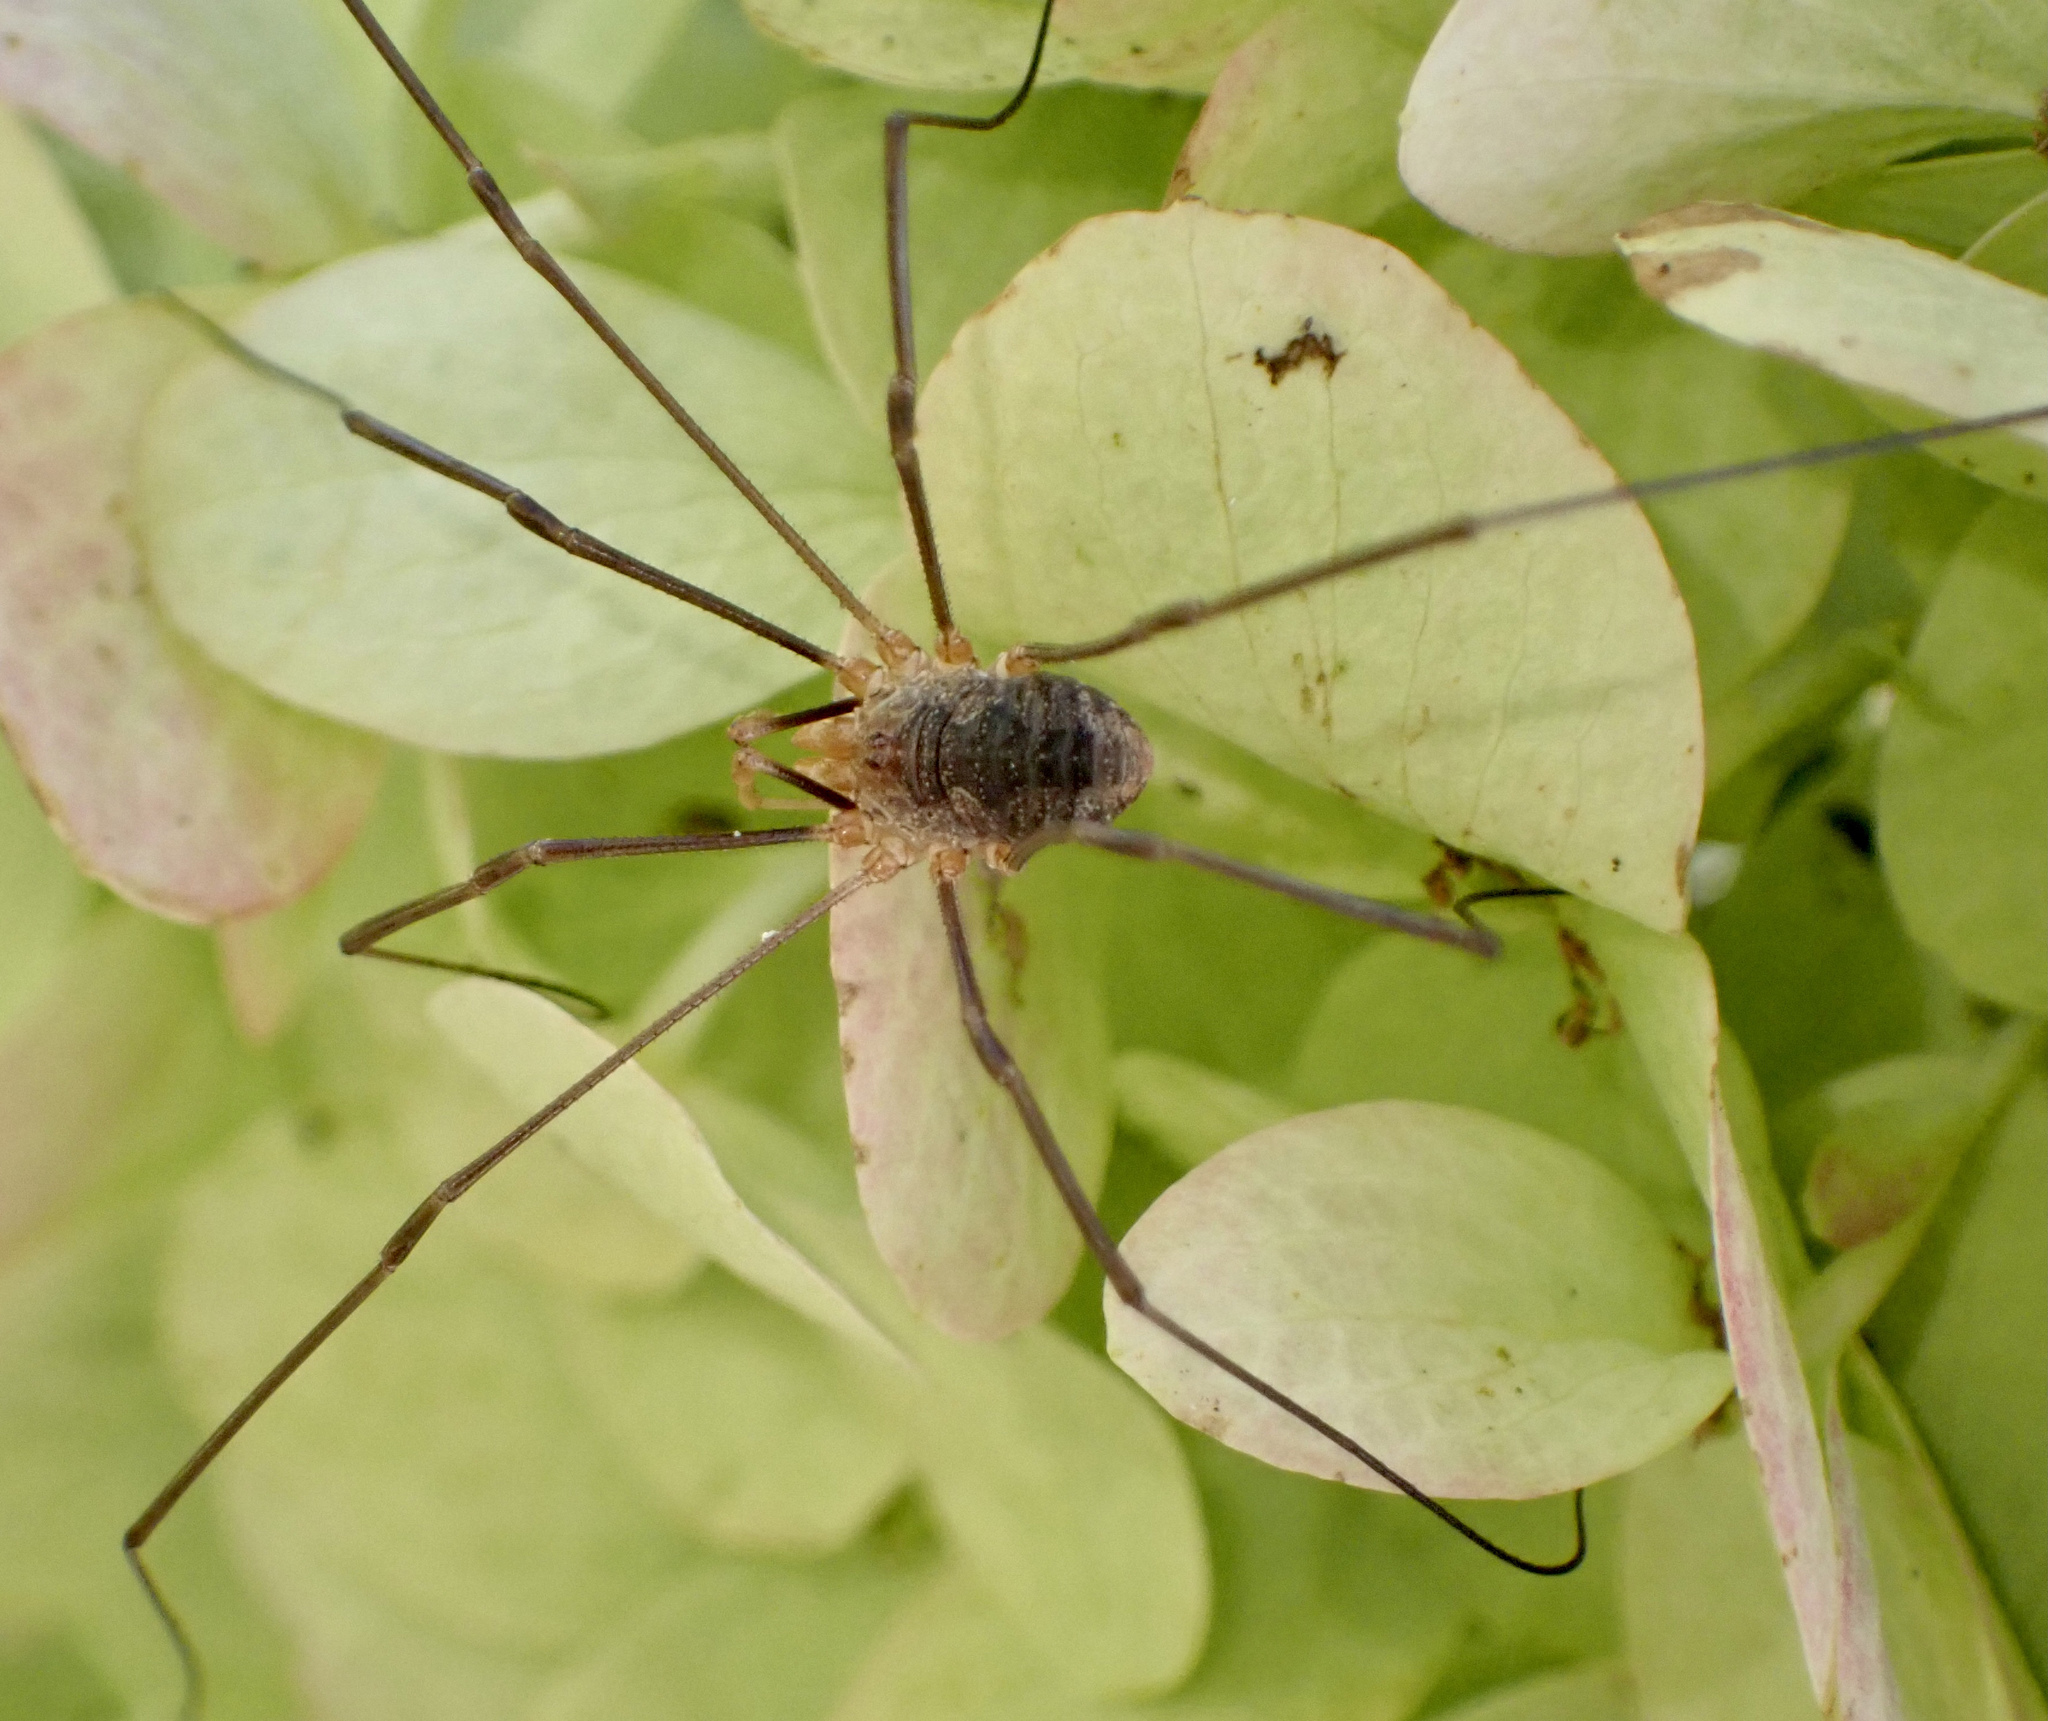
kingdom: Animalia
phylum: Arthropoda
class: Arachnida
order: Opiliones
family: Phalangiidae
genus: Phalangium
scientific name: Phalangium opilio
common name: Daddy longleg
